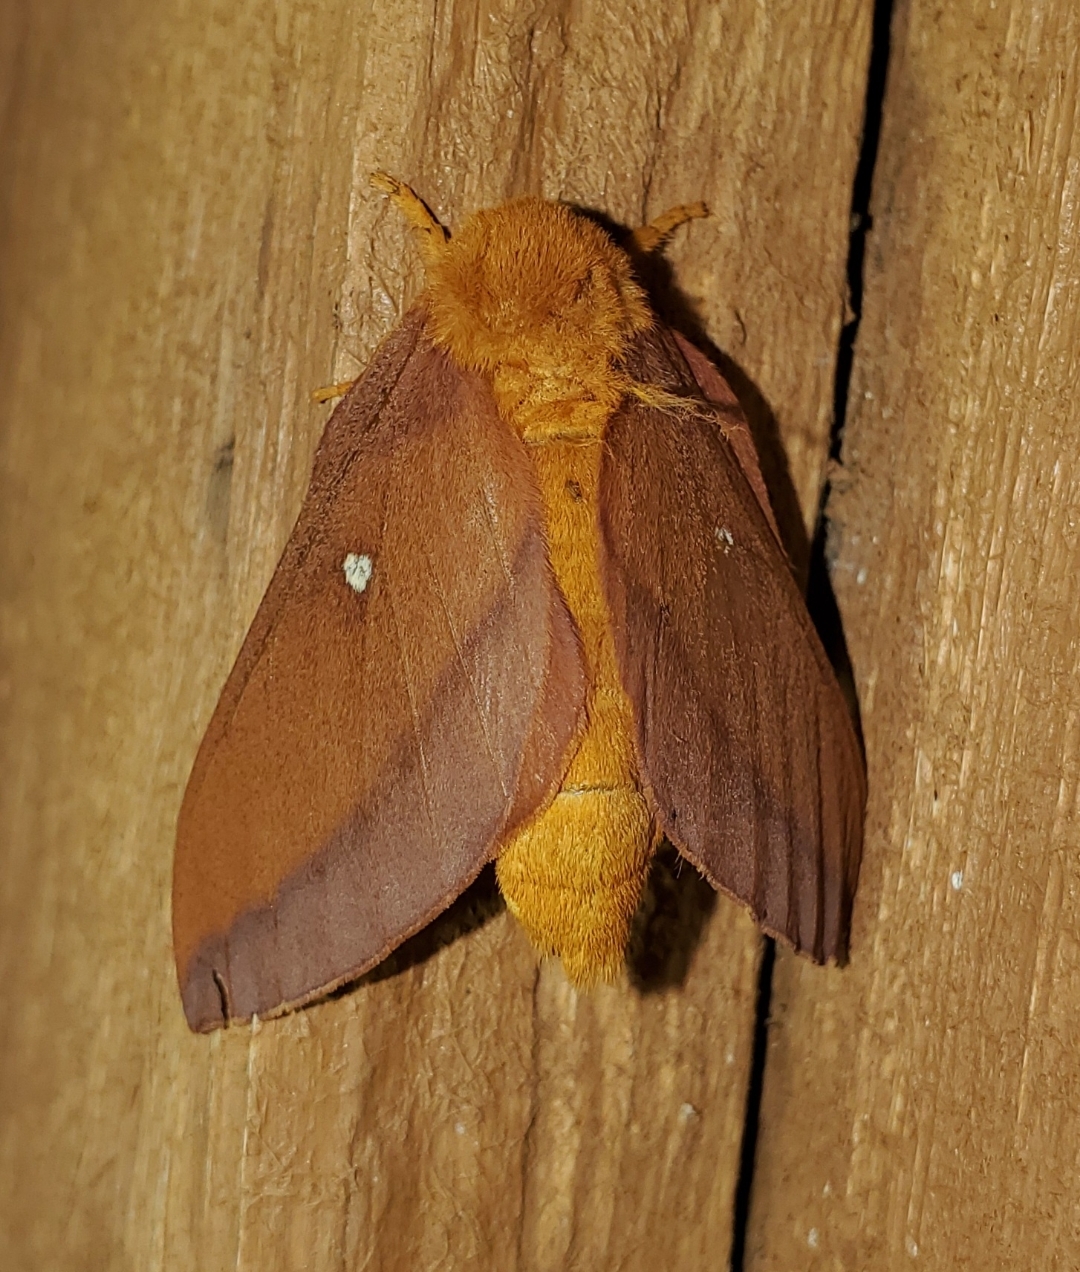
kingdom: Animalia
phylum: Arthropoda
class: Insecta
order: Lepidoptera
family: Saturniidae
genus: Anisota
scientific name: Anisota virginiensis
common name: Pink striped oakworm moth
